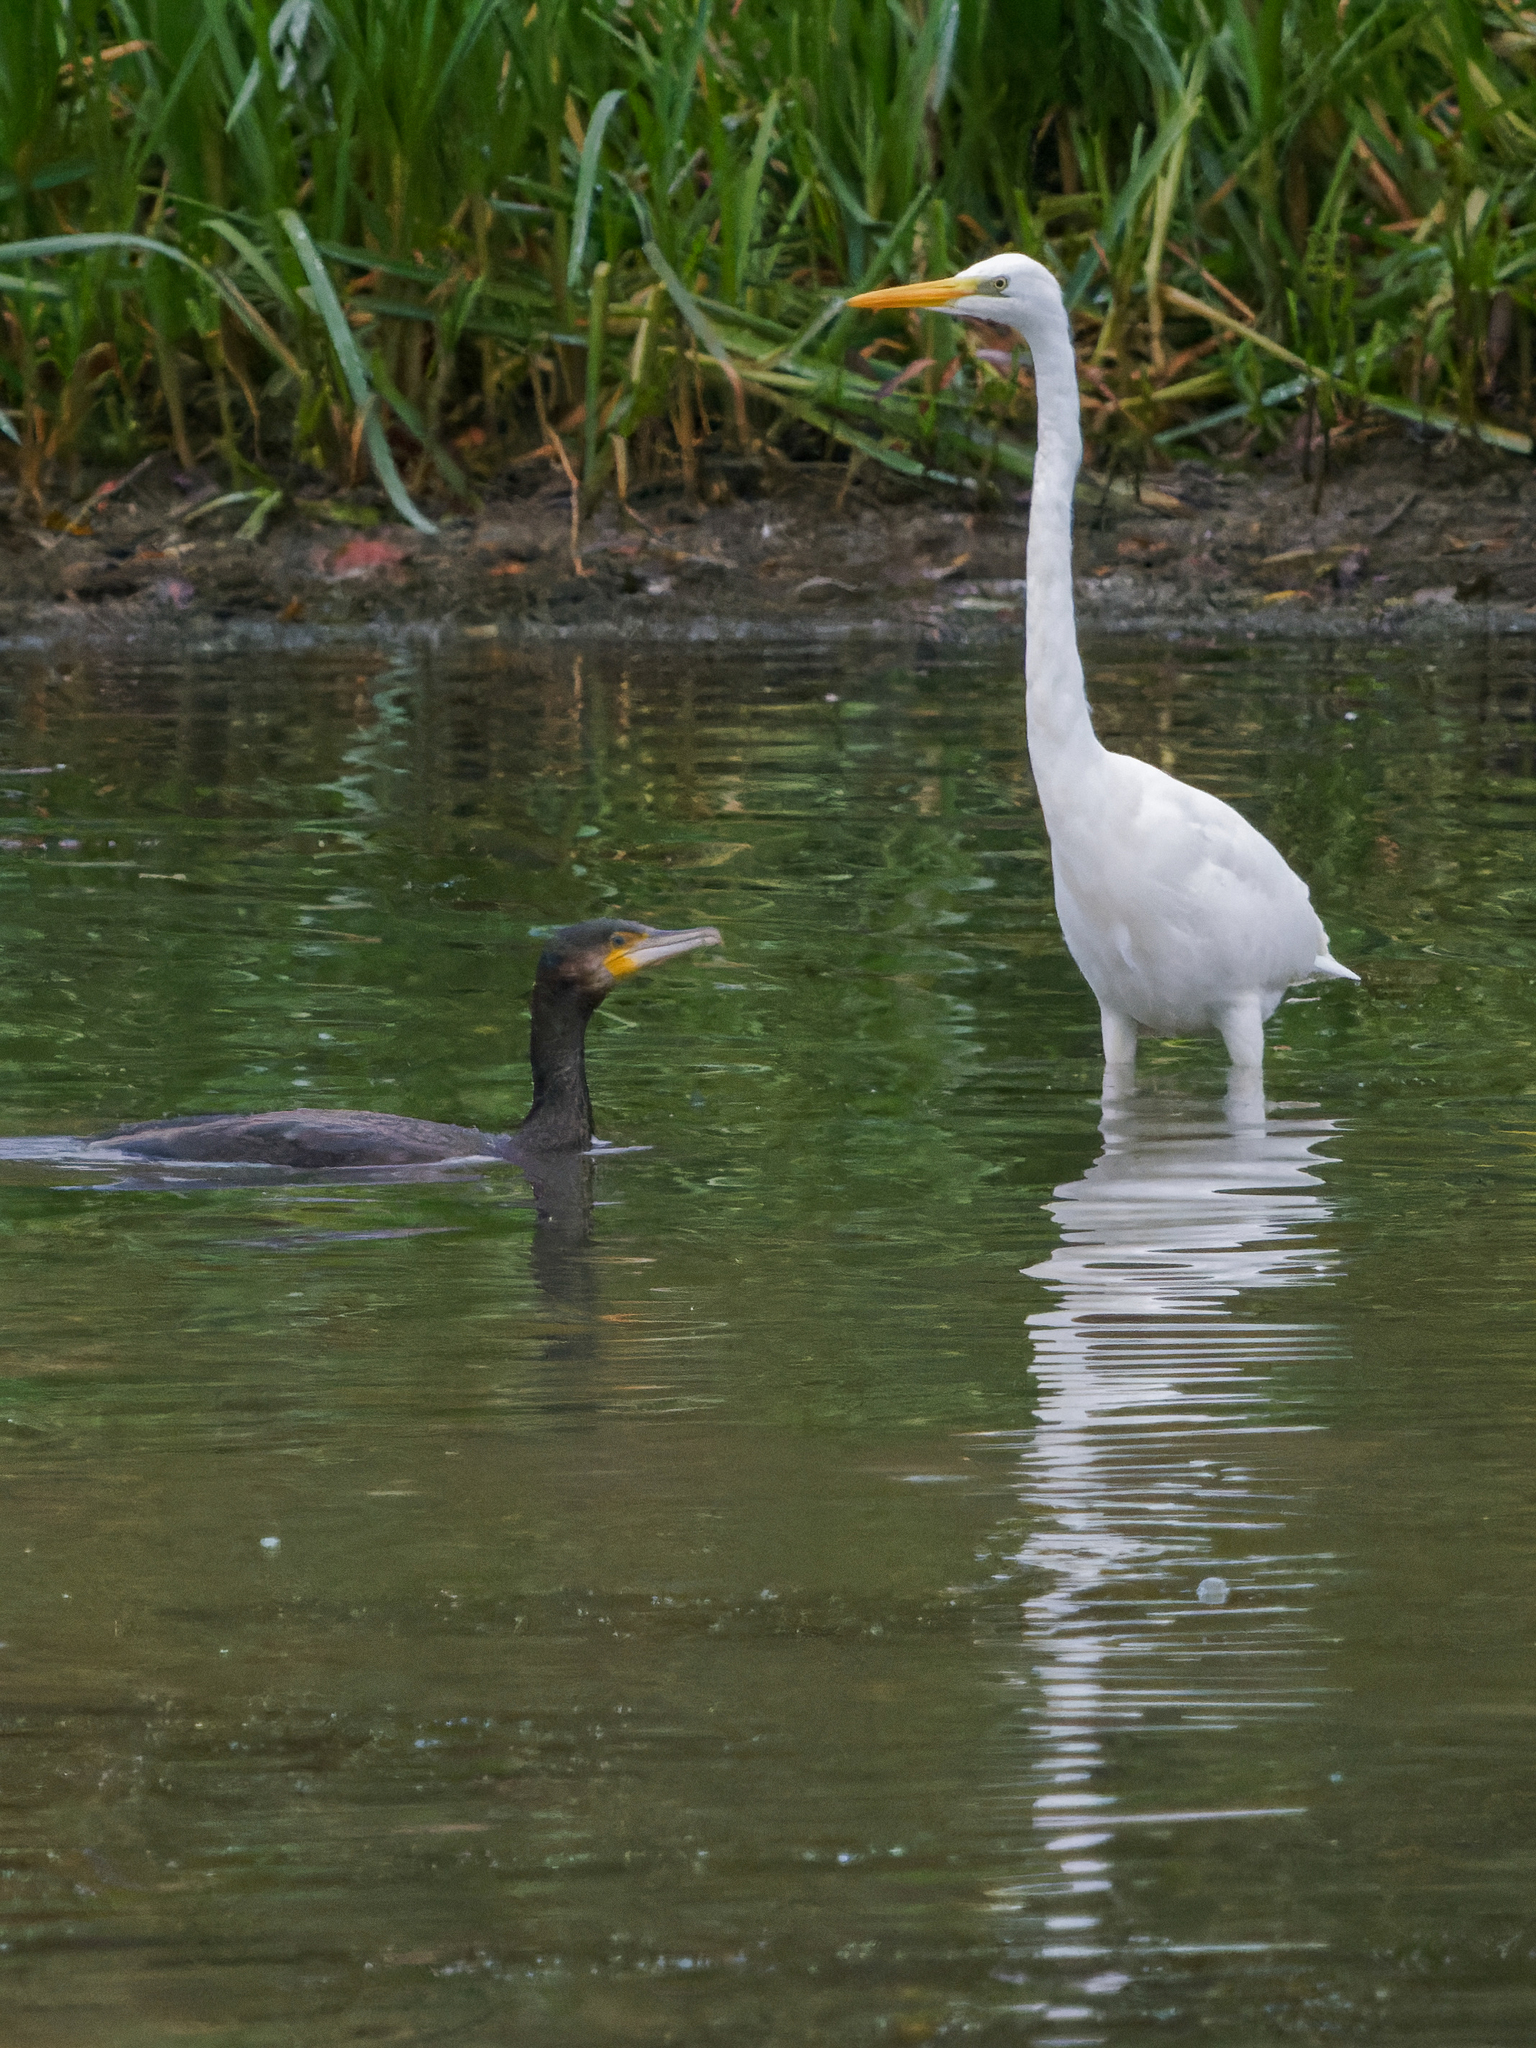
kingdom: Animalia
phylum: Chordata
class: Aves
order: Suliformes
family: Phalacrocoracidae
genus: Phalacrocorax
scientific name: Phalacrocorax carbo
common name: Great cormorant
